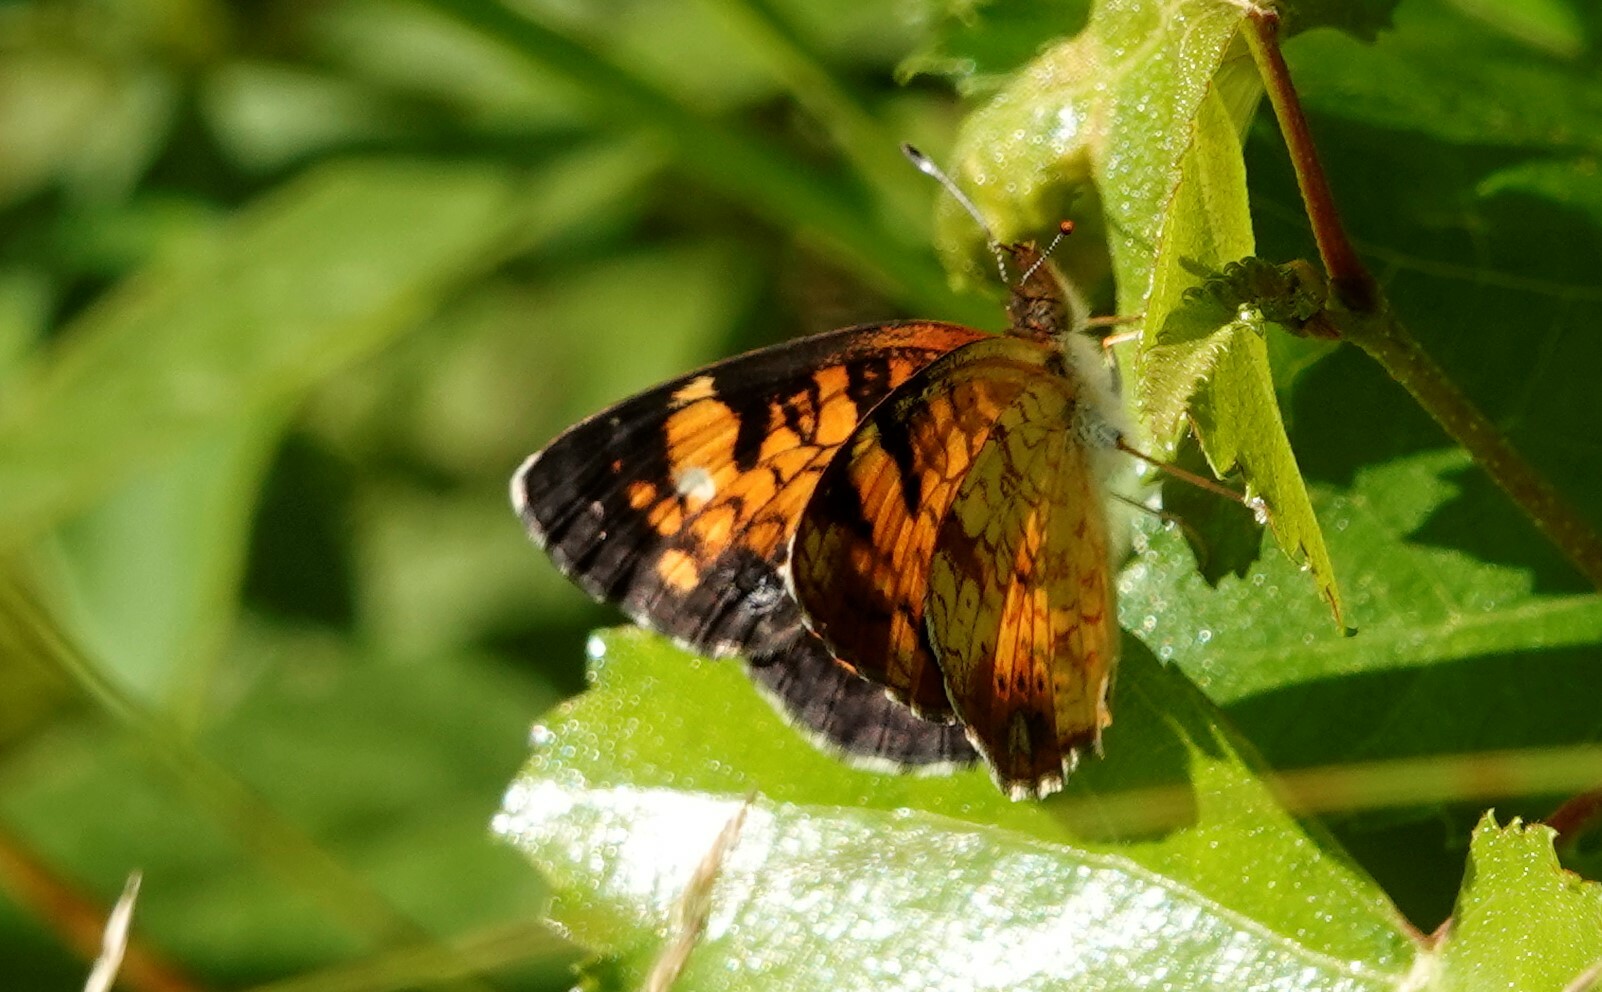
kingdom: Animalia
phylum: Arthropoda
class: Insecta
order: Lepidoptera
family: Nymphalidae
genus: Phyciodes
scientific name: Phyciodes tharos
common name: Pearl crescent
